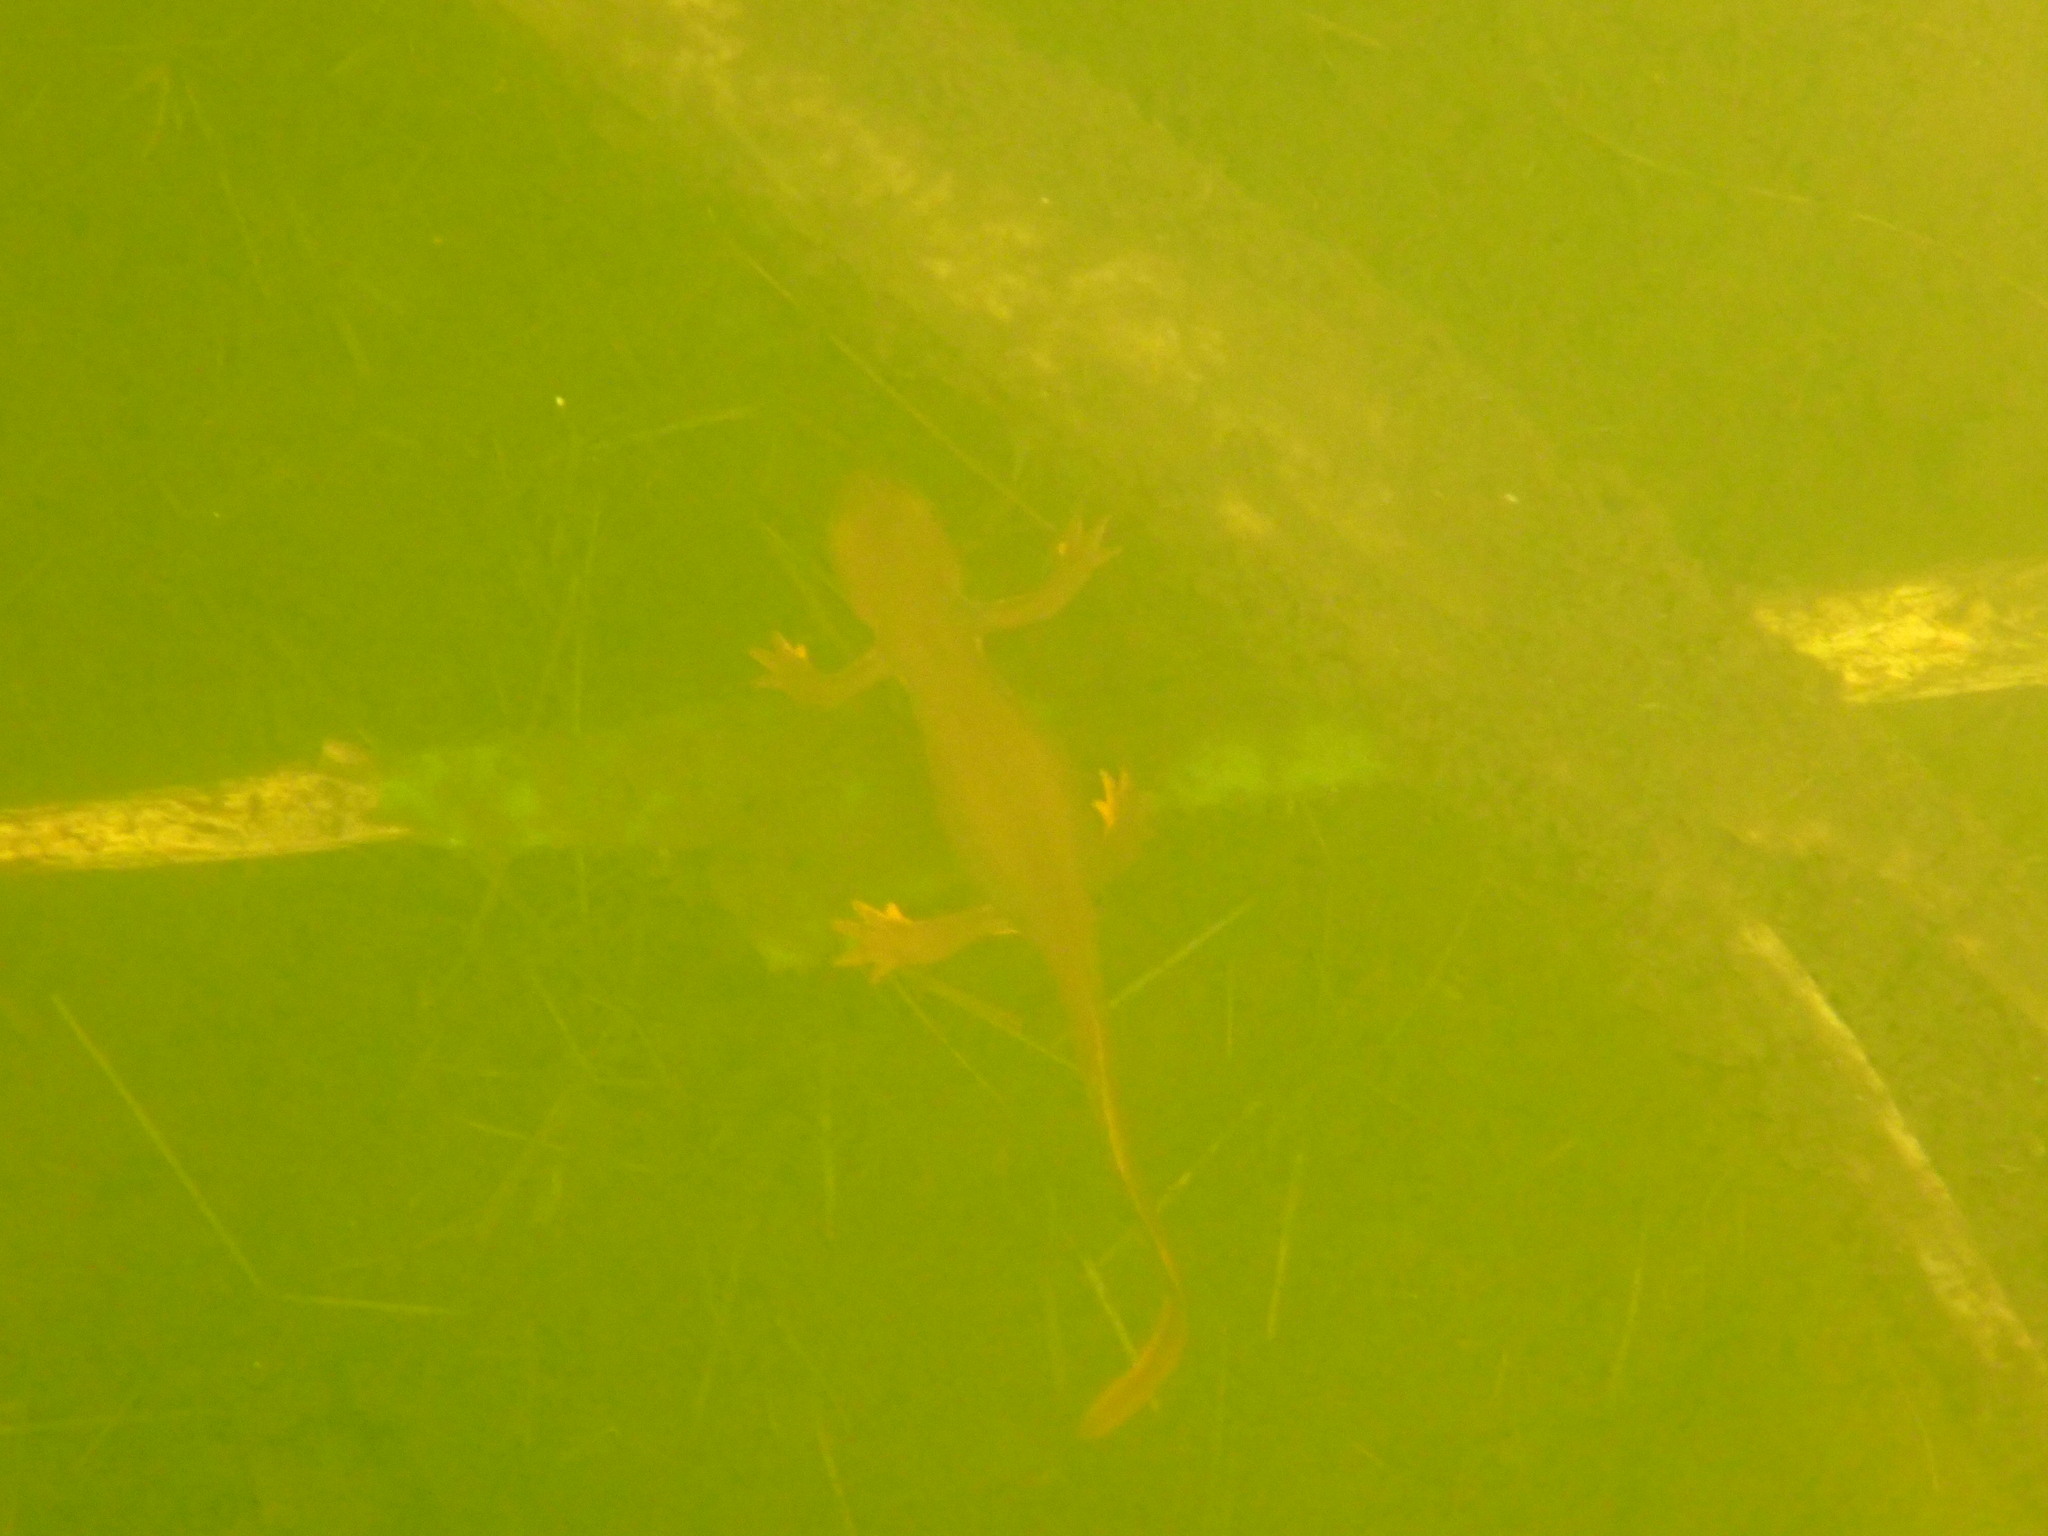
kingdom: Animalia
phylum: Chordata
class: Amphibia
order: Caudata
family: Salamandridae
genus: Taricha
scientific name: Taricha granulosa
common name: Roughskin newt
